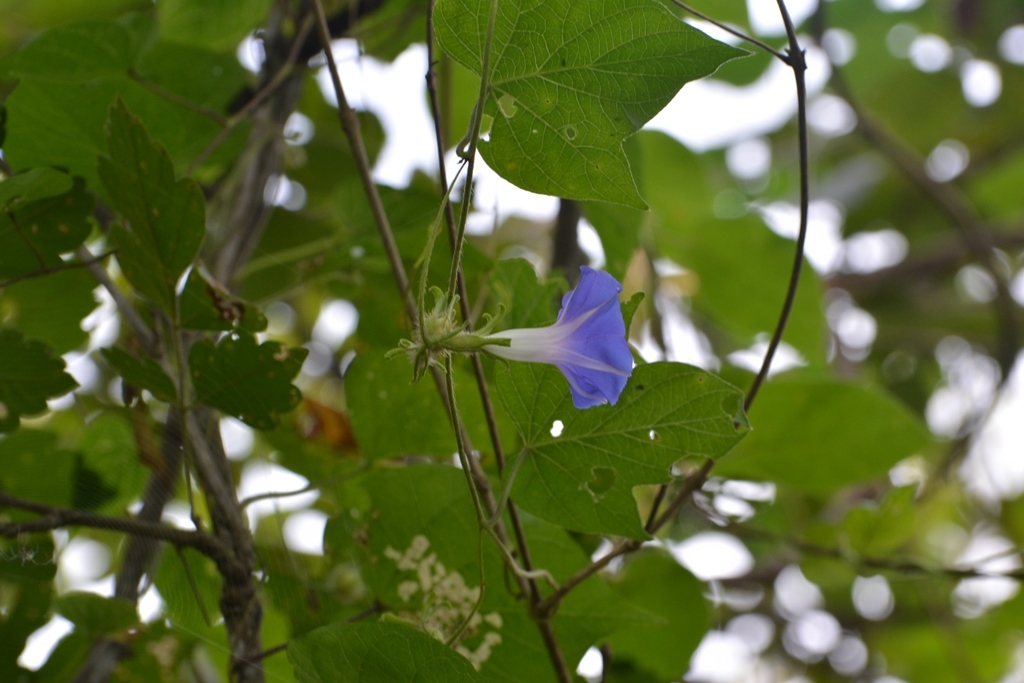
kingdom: Plantae
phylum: Tracheophyta
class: Magnoliopsida
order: Solanales
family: Convolvulaceae
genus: Ipomoea
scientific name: Ipomoea hederacea
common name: Ivy-leaved morning-glory
